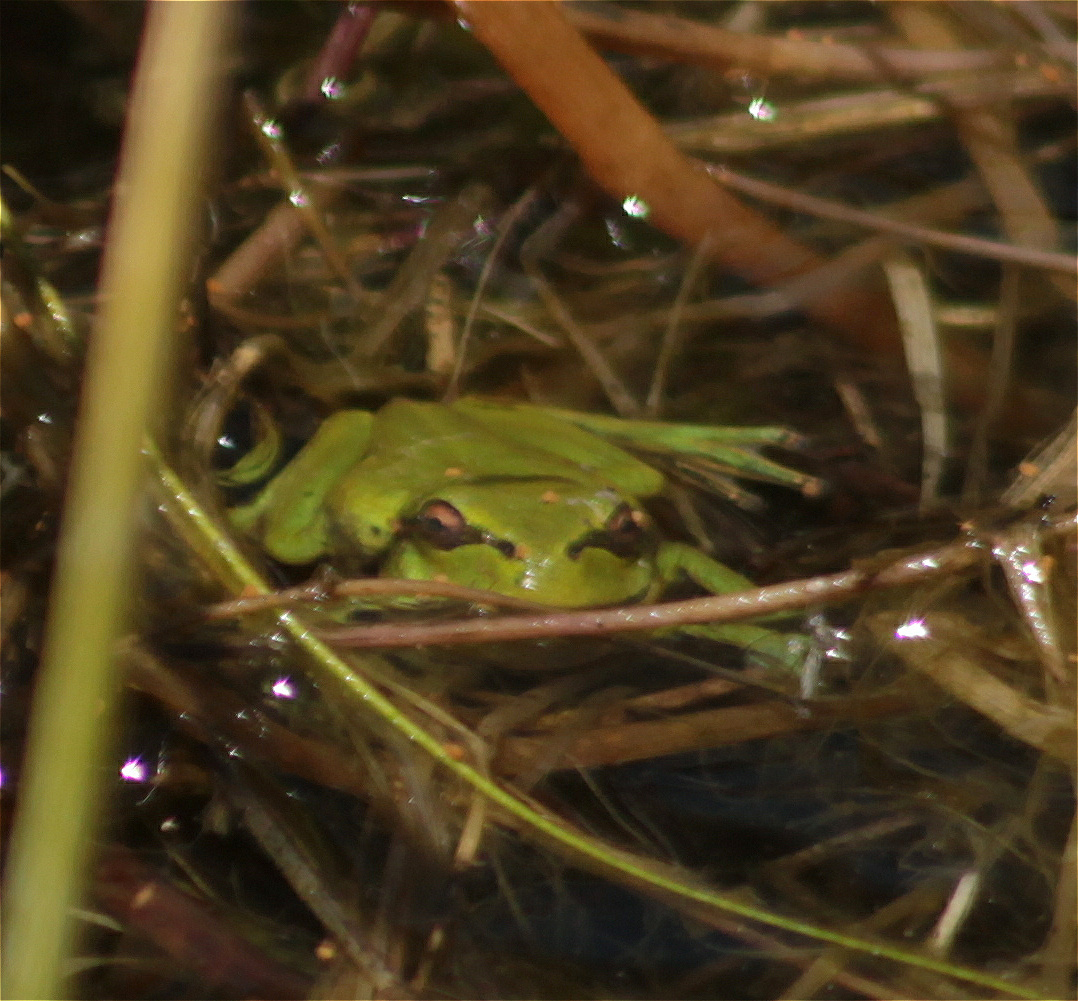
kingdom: Animalia
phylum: Chordata
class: Amphibia
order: Anura
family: Hylidae
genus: Dendropsophus
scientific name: Dendropsophus molitor
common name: Green dotted treefrog
